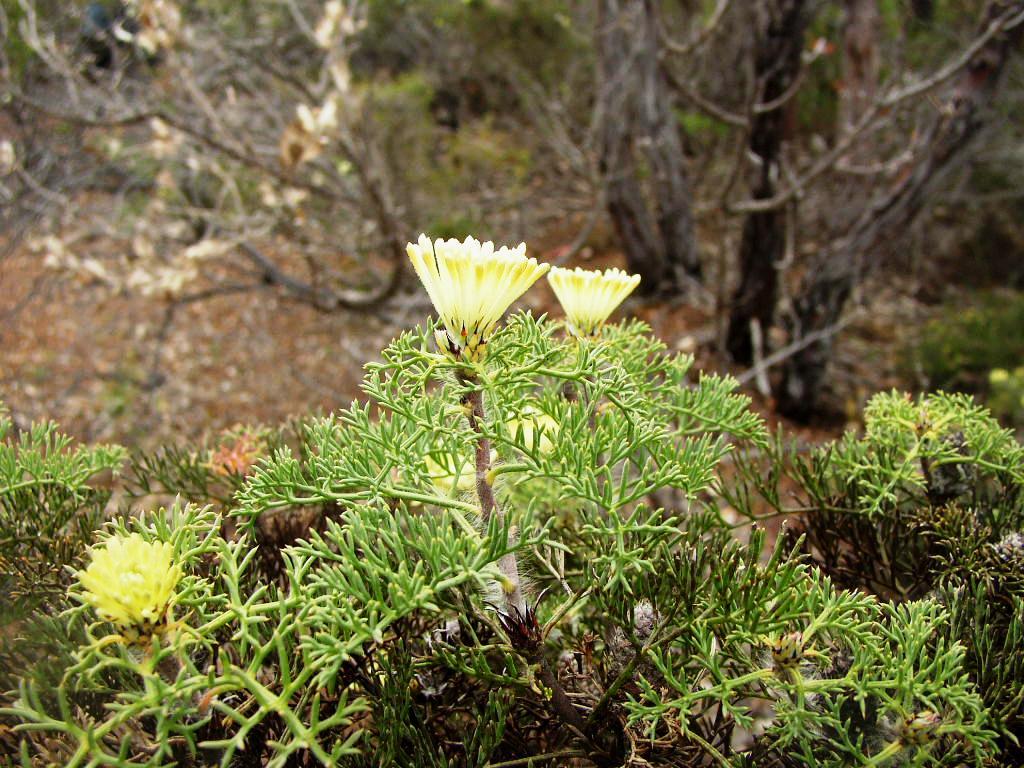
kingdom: Plantae
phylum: Tracheophyta
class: Magnoliopsida
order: Proteales
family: Proteaceae
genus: Petrophile
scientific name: Petrophile divaricata
